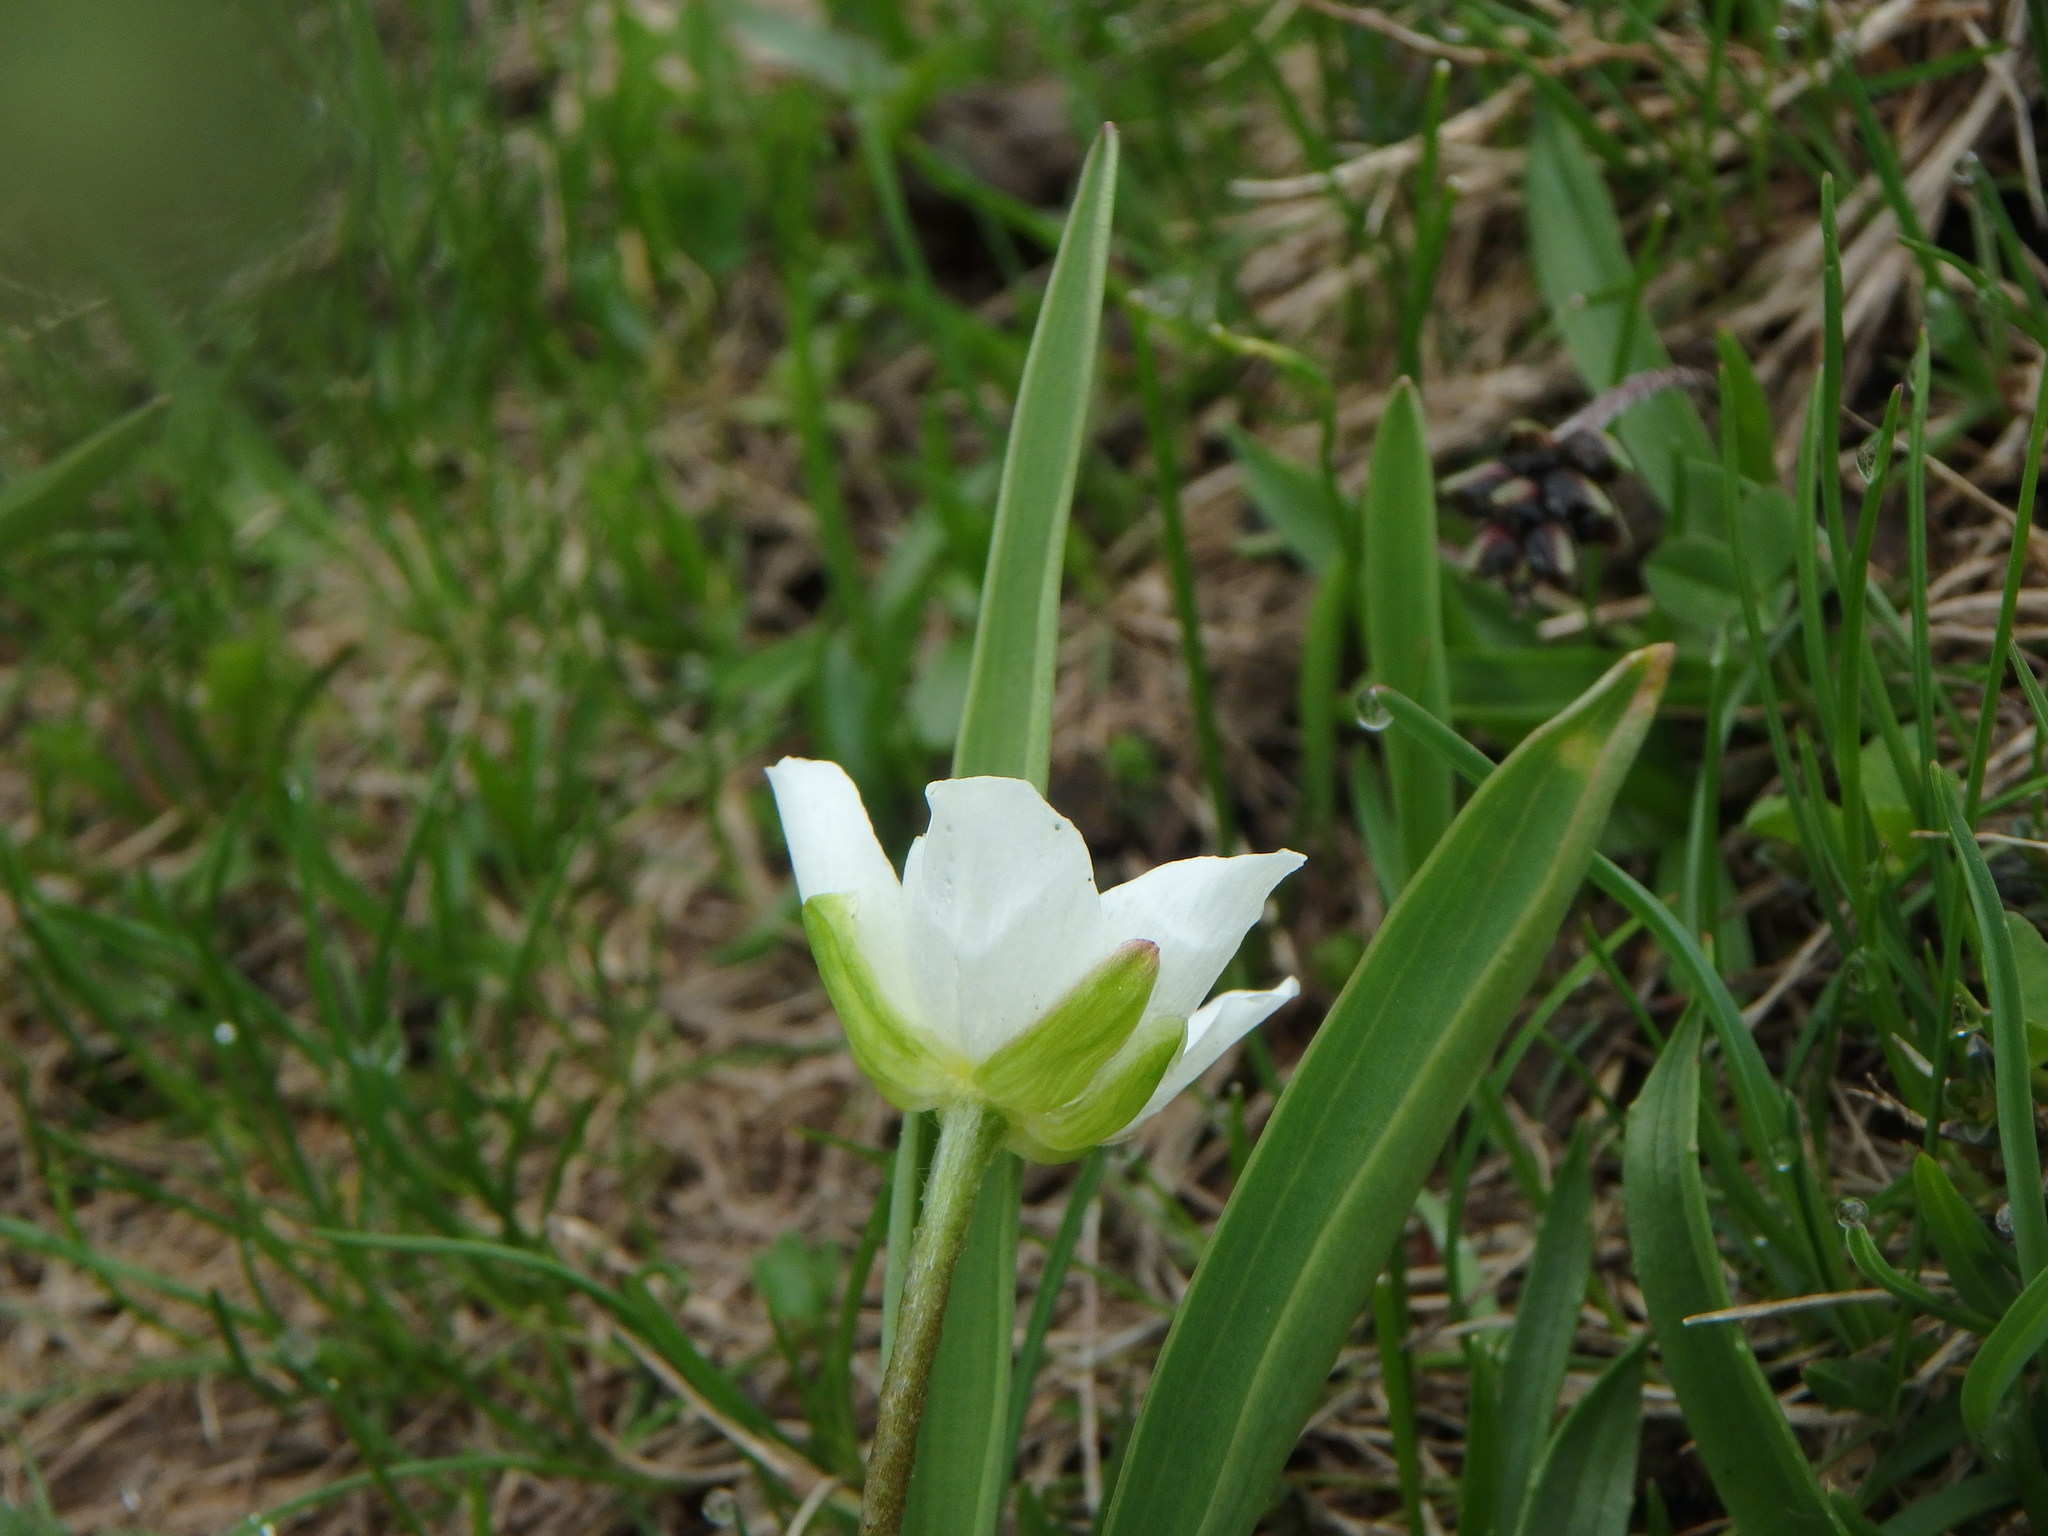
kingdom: Plantae
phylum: Tracheophyta
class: Magnoliopsida
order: Ranunculales
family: Ranunculaceae
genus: Ranunculus
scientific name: Ranunculus kuepferi
